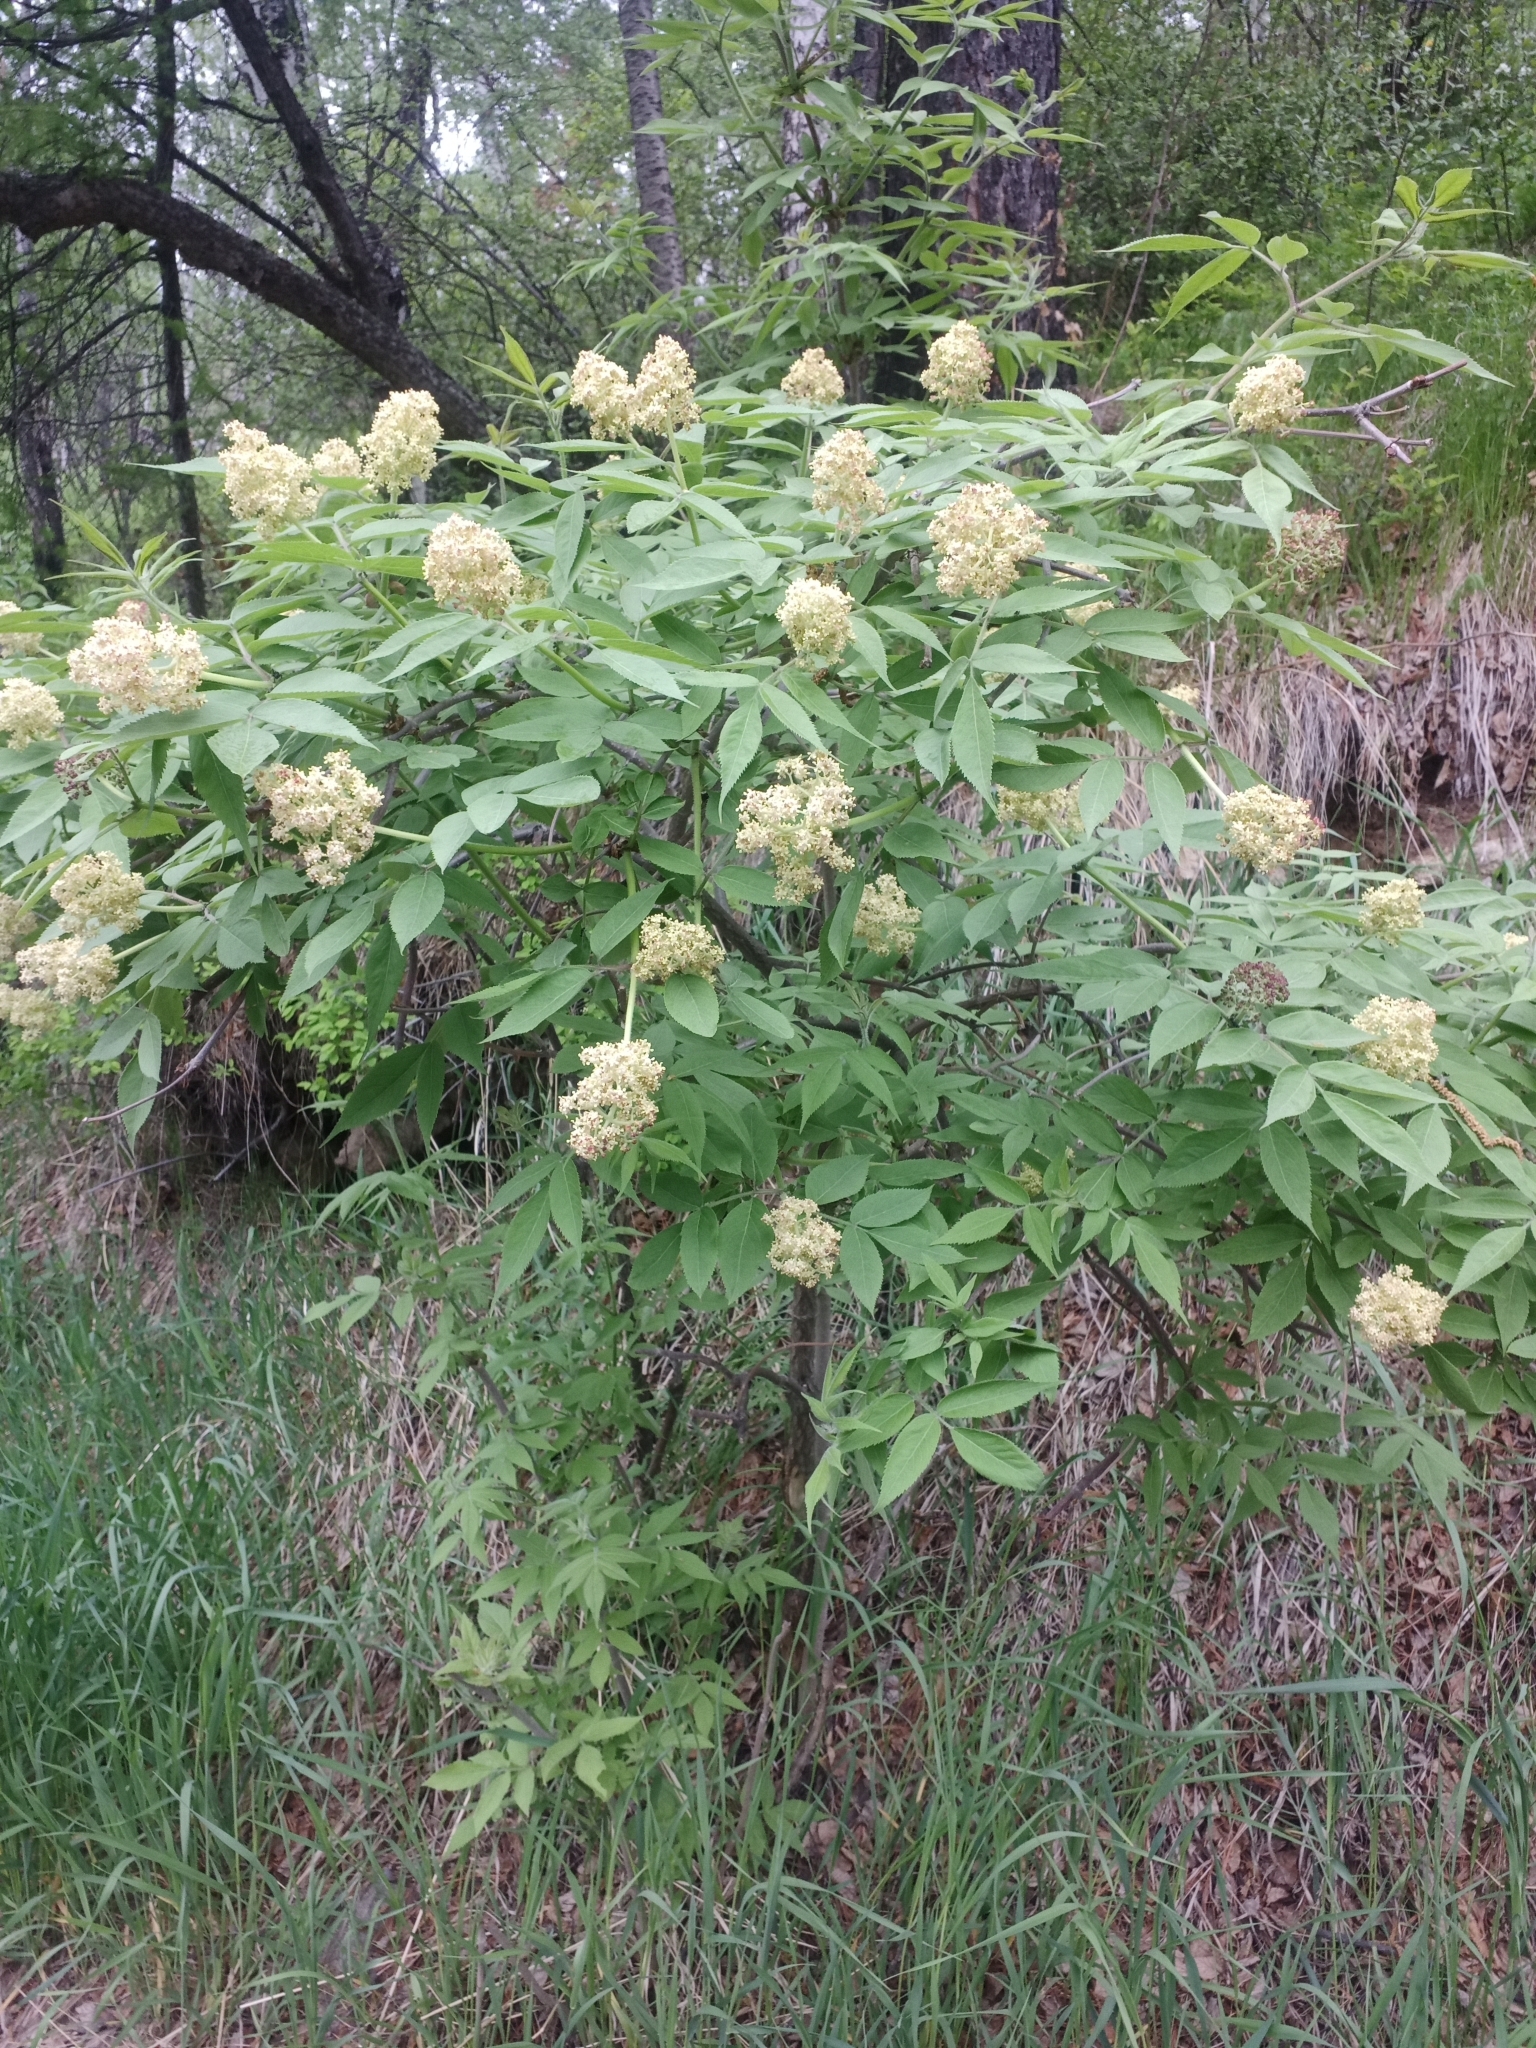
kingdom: Plantae
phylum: Tracheophyta
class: Magnoliopsida
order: Dipsacales
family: Viburnaceae
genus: Sambucus
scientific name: Sambucus sibirica
